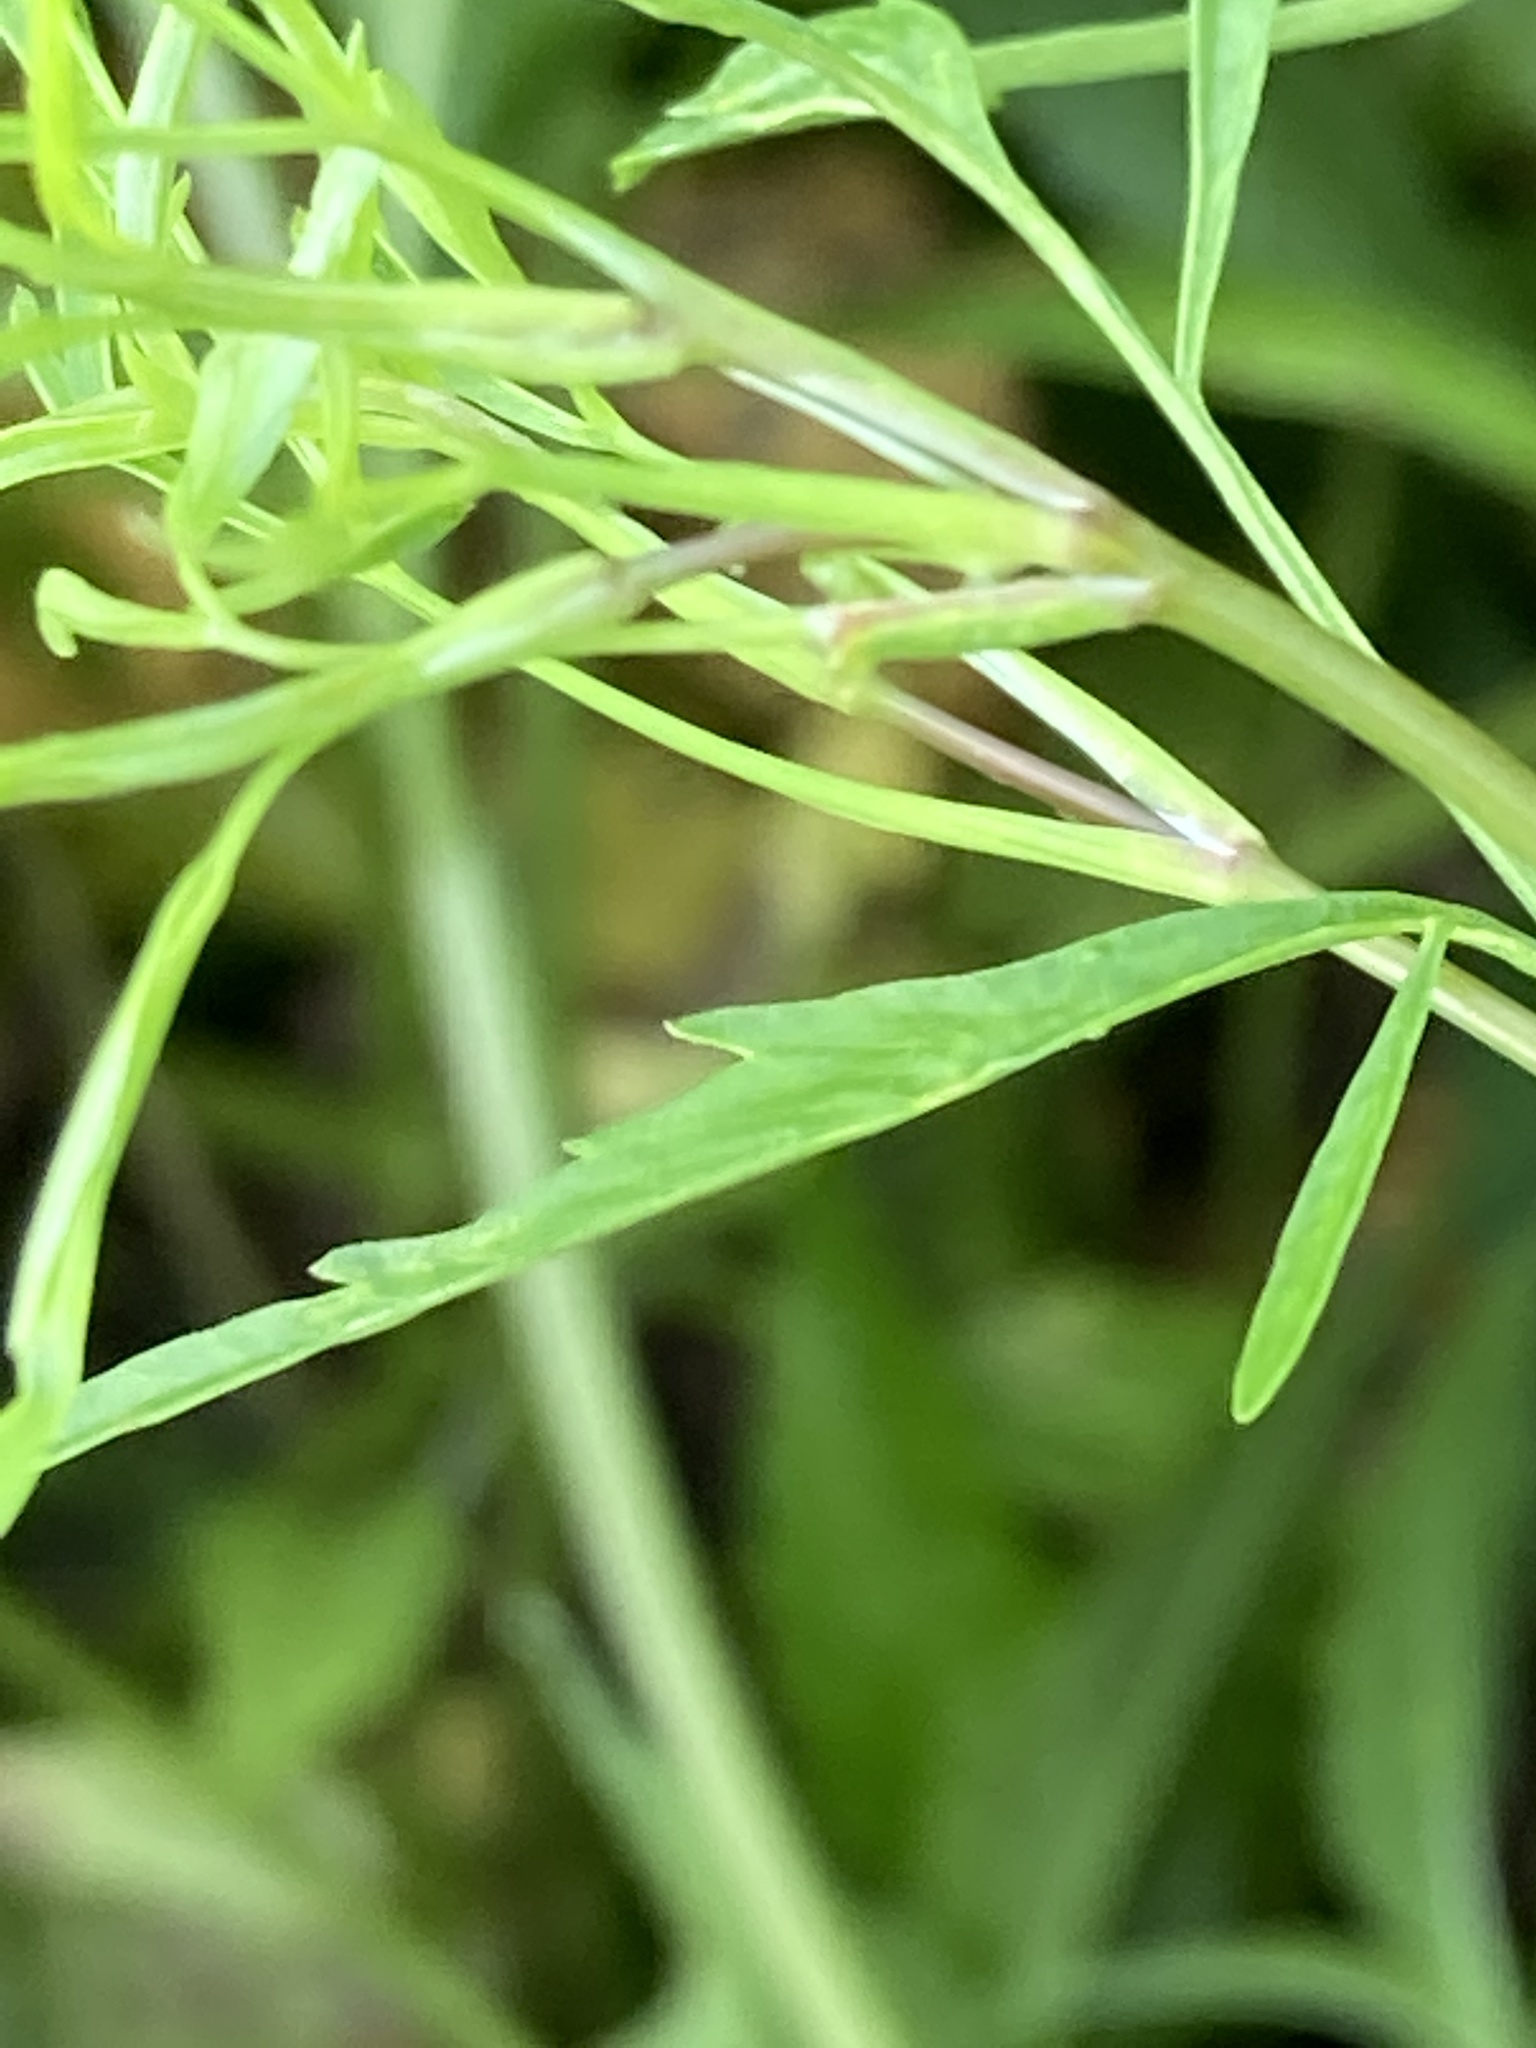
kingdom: Plantae
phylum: Tracheophyta
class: Magnoliopsida
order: Apiales
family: Apiaceae
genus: Cicuta
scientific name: Cicuta bulbifera
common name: Bulb-bearing water-hemlock
